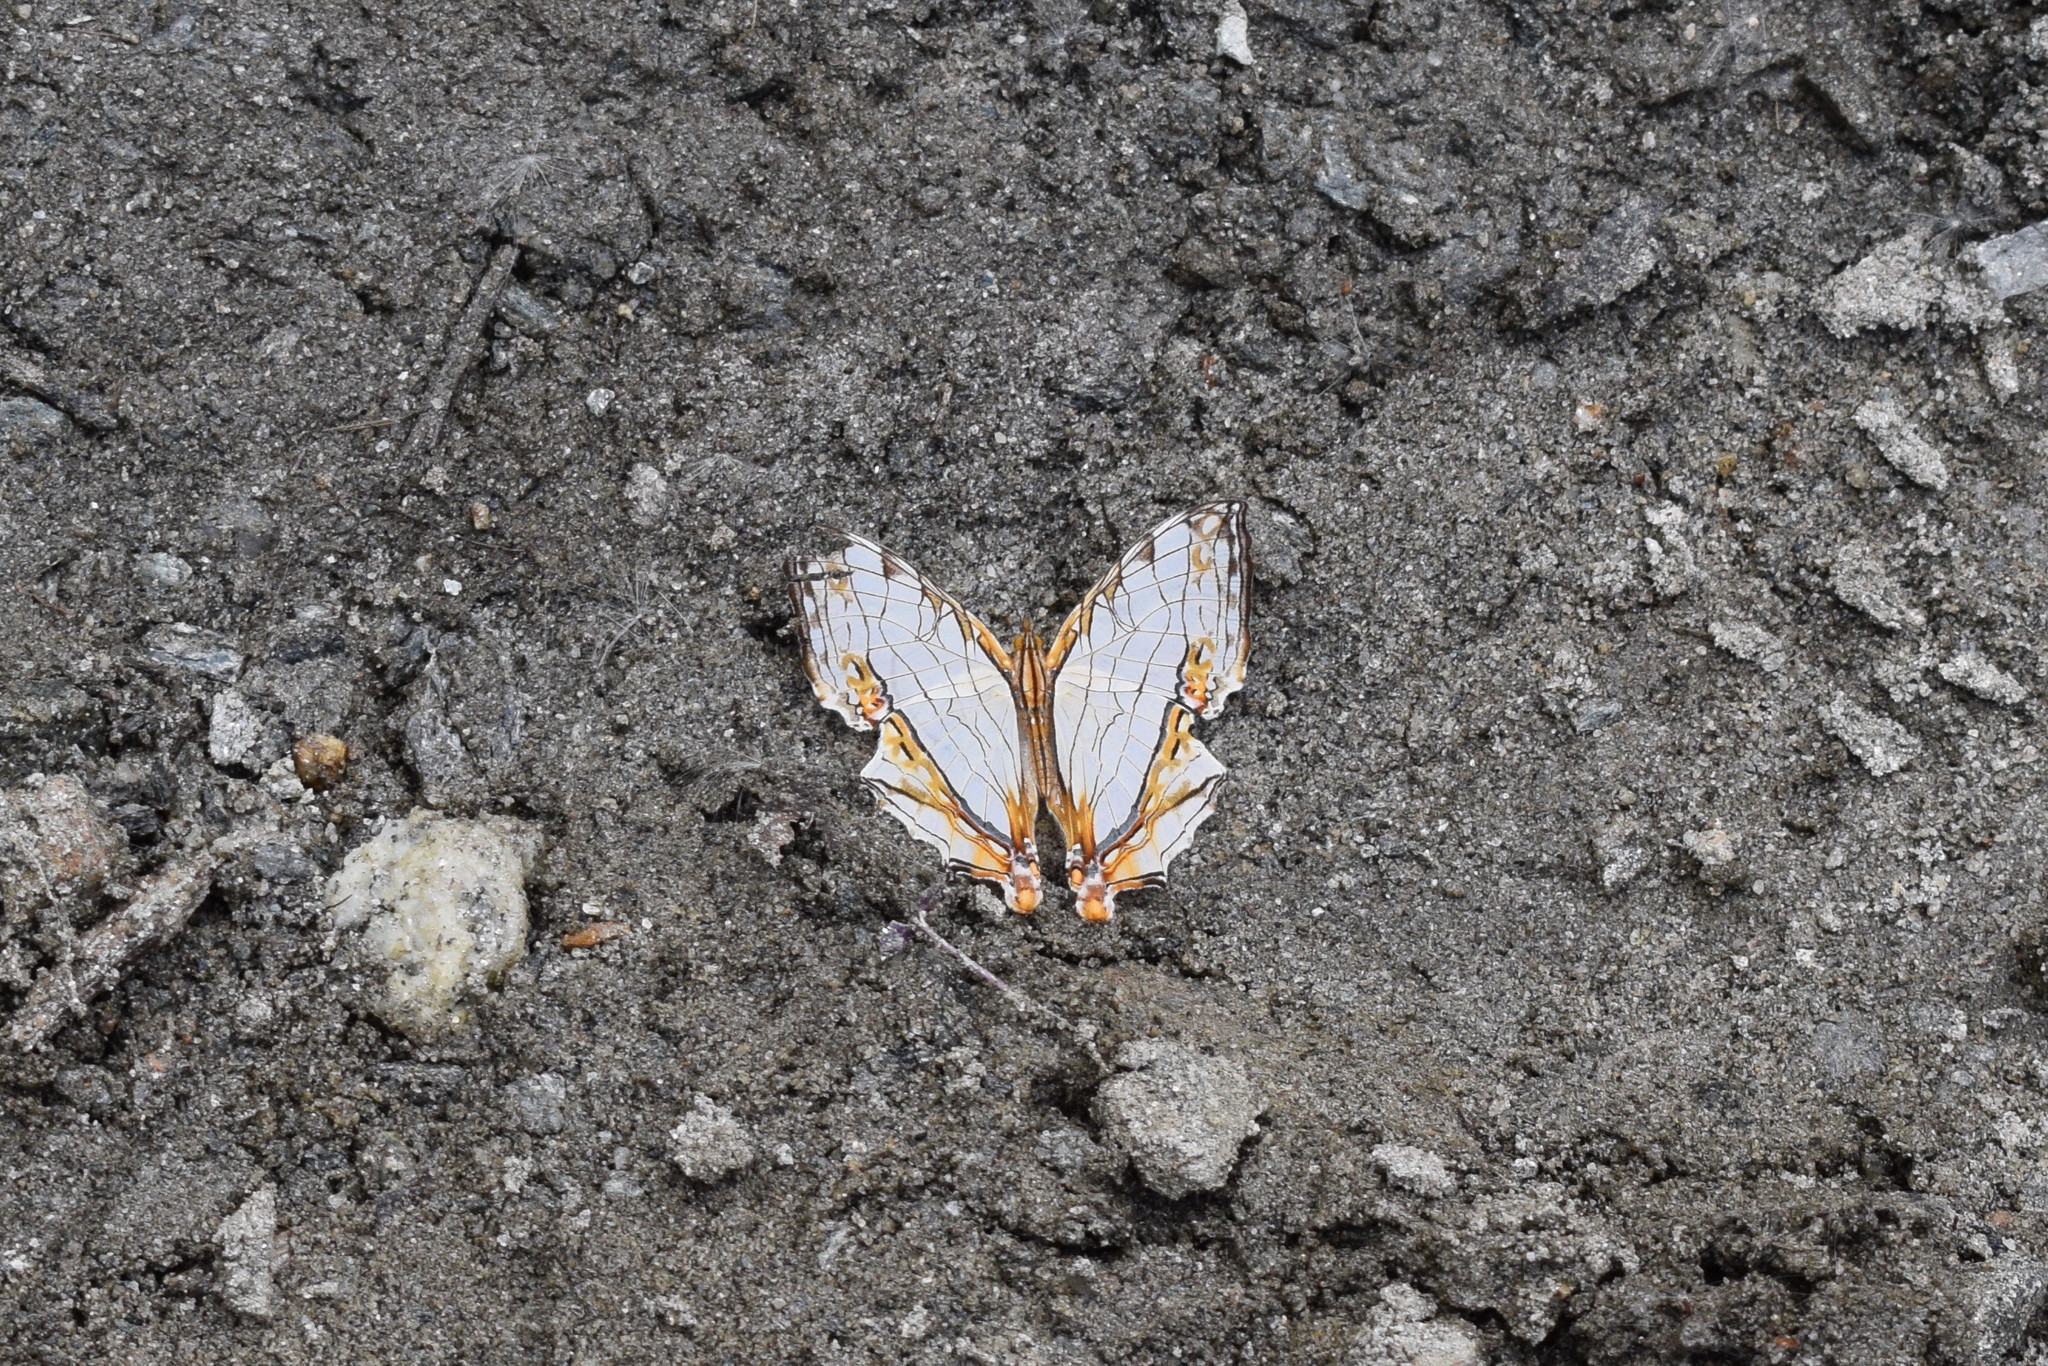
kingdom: Animalia
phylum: Arthropoda
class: Insecta
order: Lepidoptera
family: Nymphalidae
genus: Cyrestis
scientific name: Cyrestis thyodamas
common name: Common mapwing
